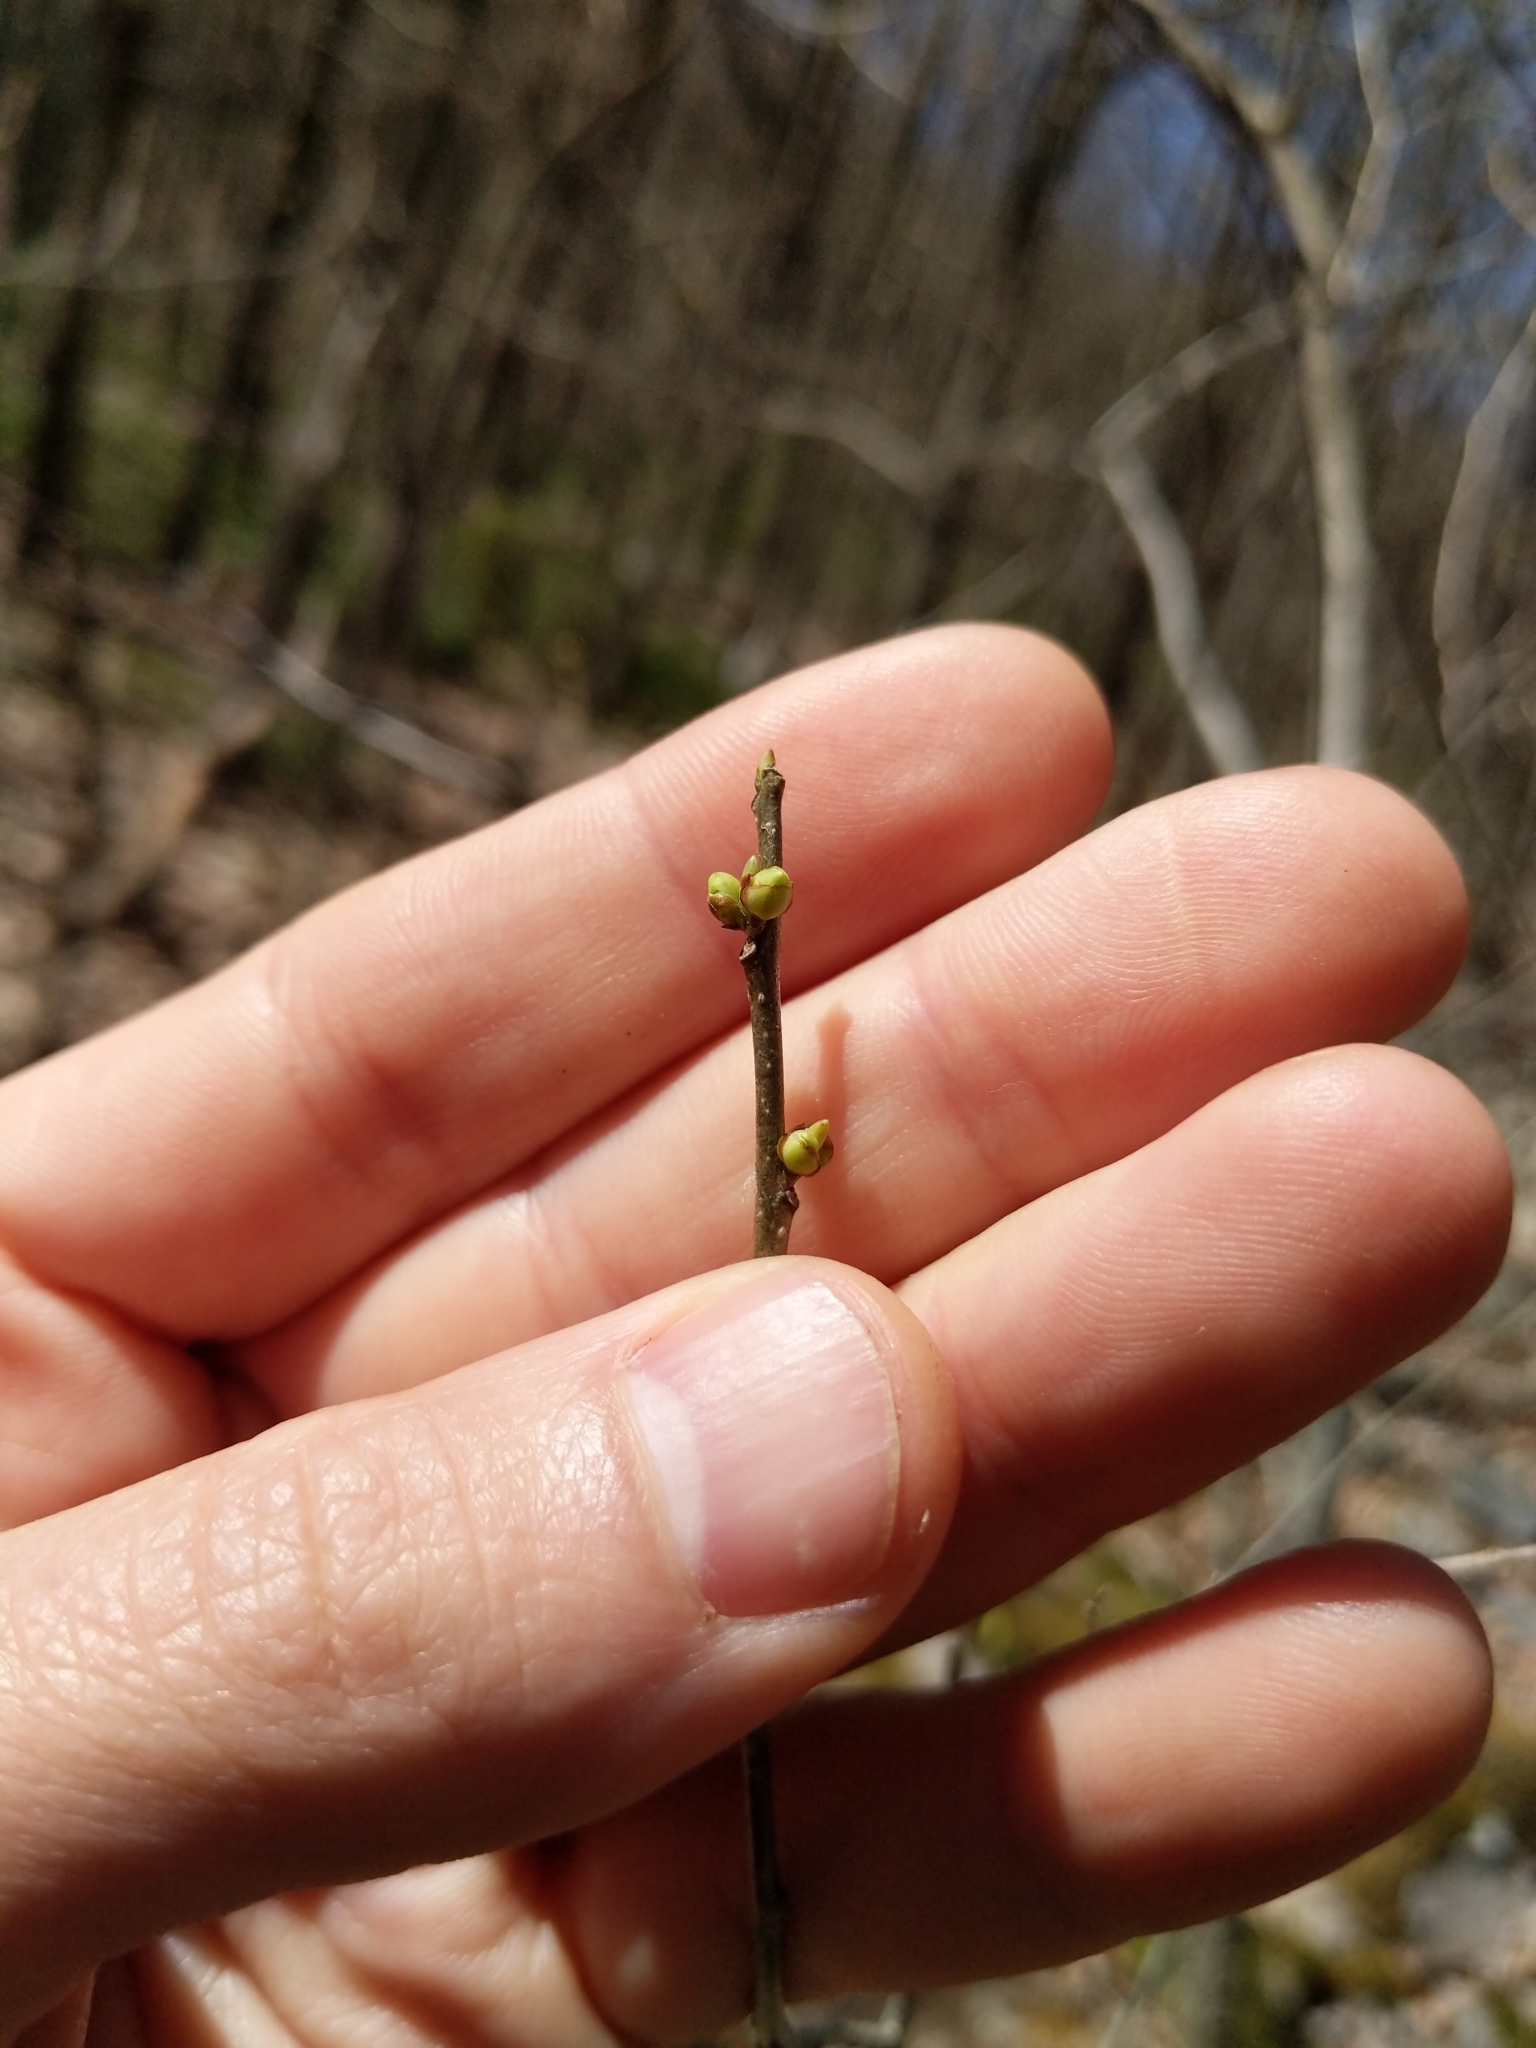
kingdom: Plantae
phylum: Tracheophyta
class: Magnoliopsida
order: Laurales
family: Lauraceae
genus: Lindera
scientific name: Lindera benzoin
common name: Spicebush
